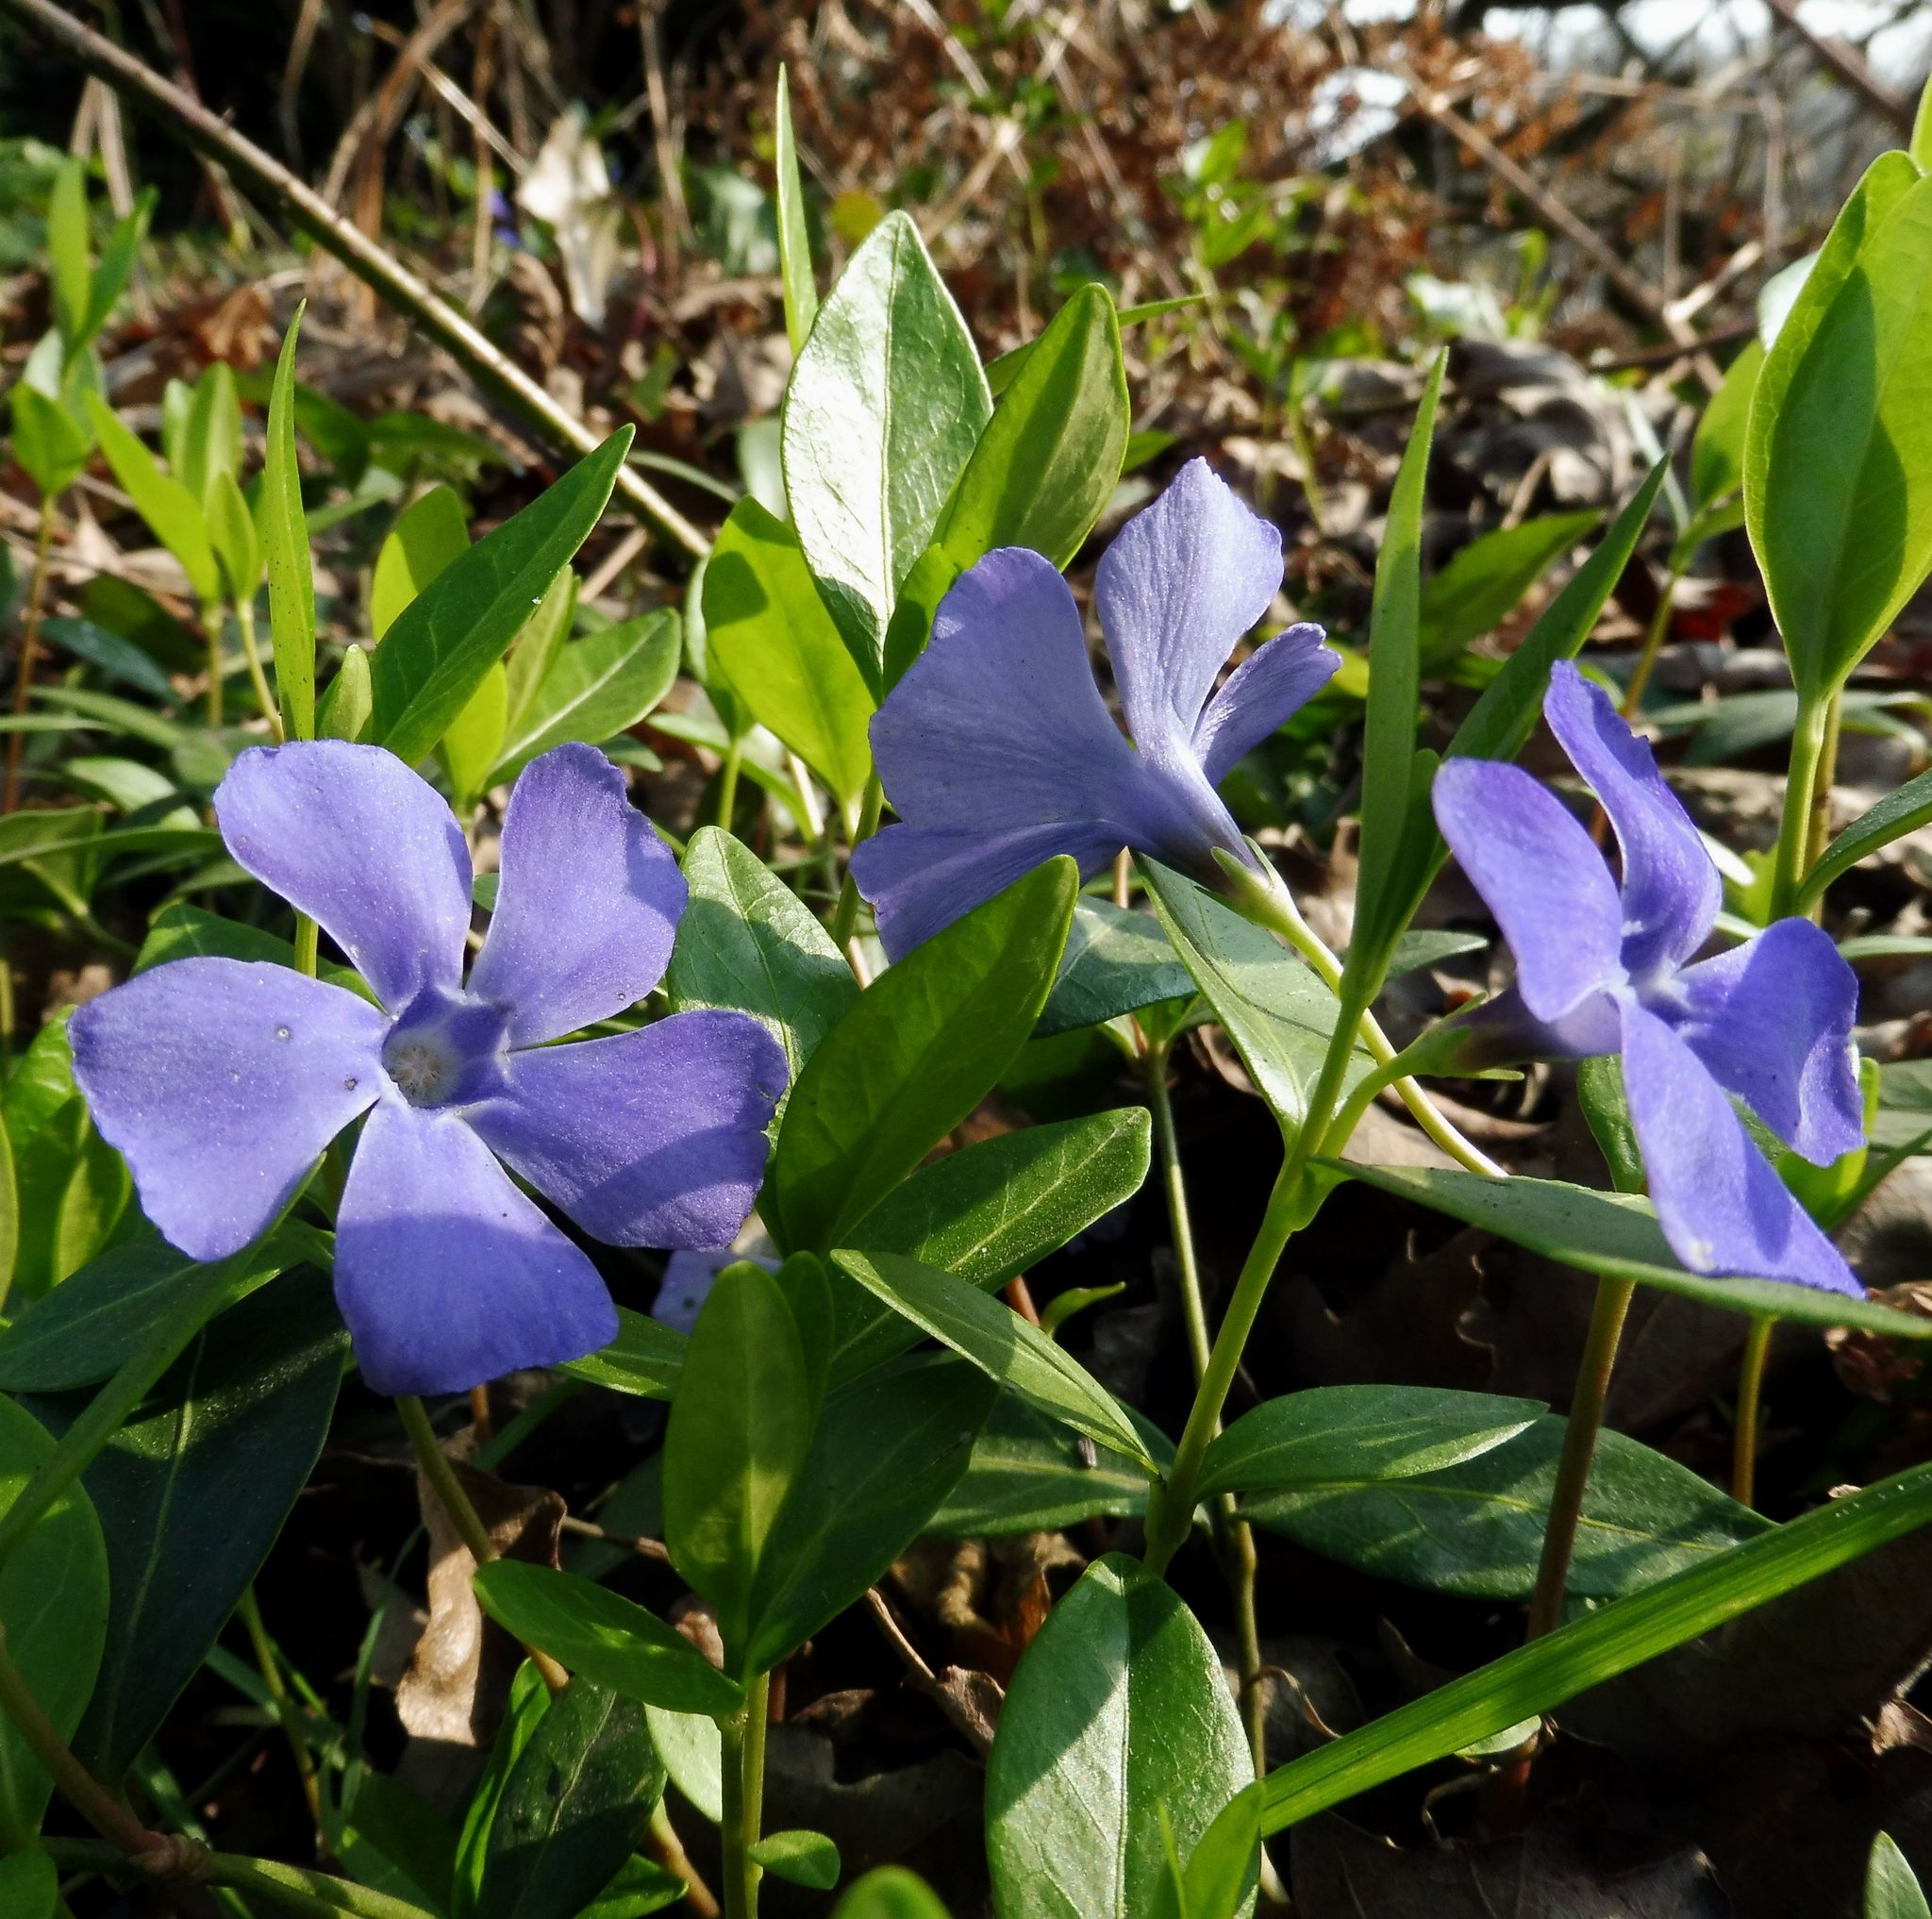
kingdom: Plantae
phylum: Tracheophyta
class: Magnoliopsida
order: Gentianales
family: Apocynaceae
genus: Vinca
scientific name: Vinca minor
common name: Lesser periwinkle
